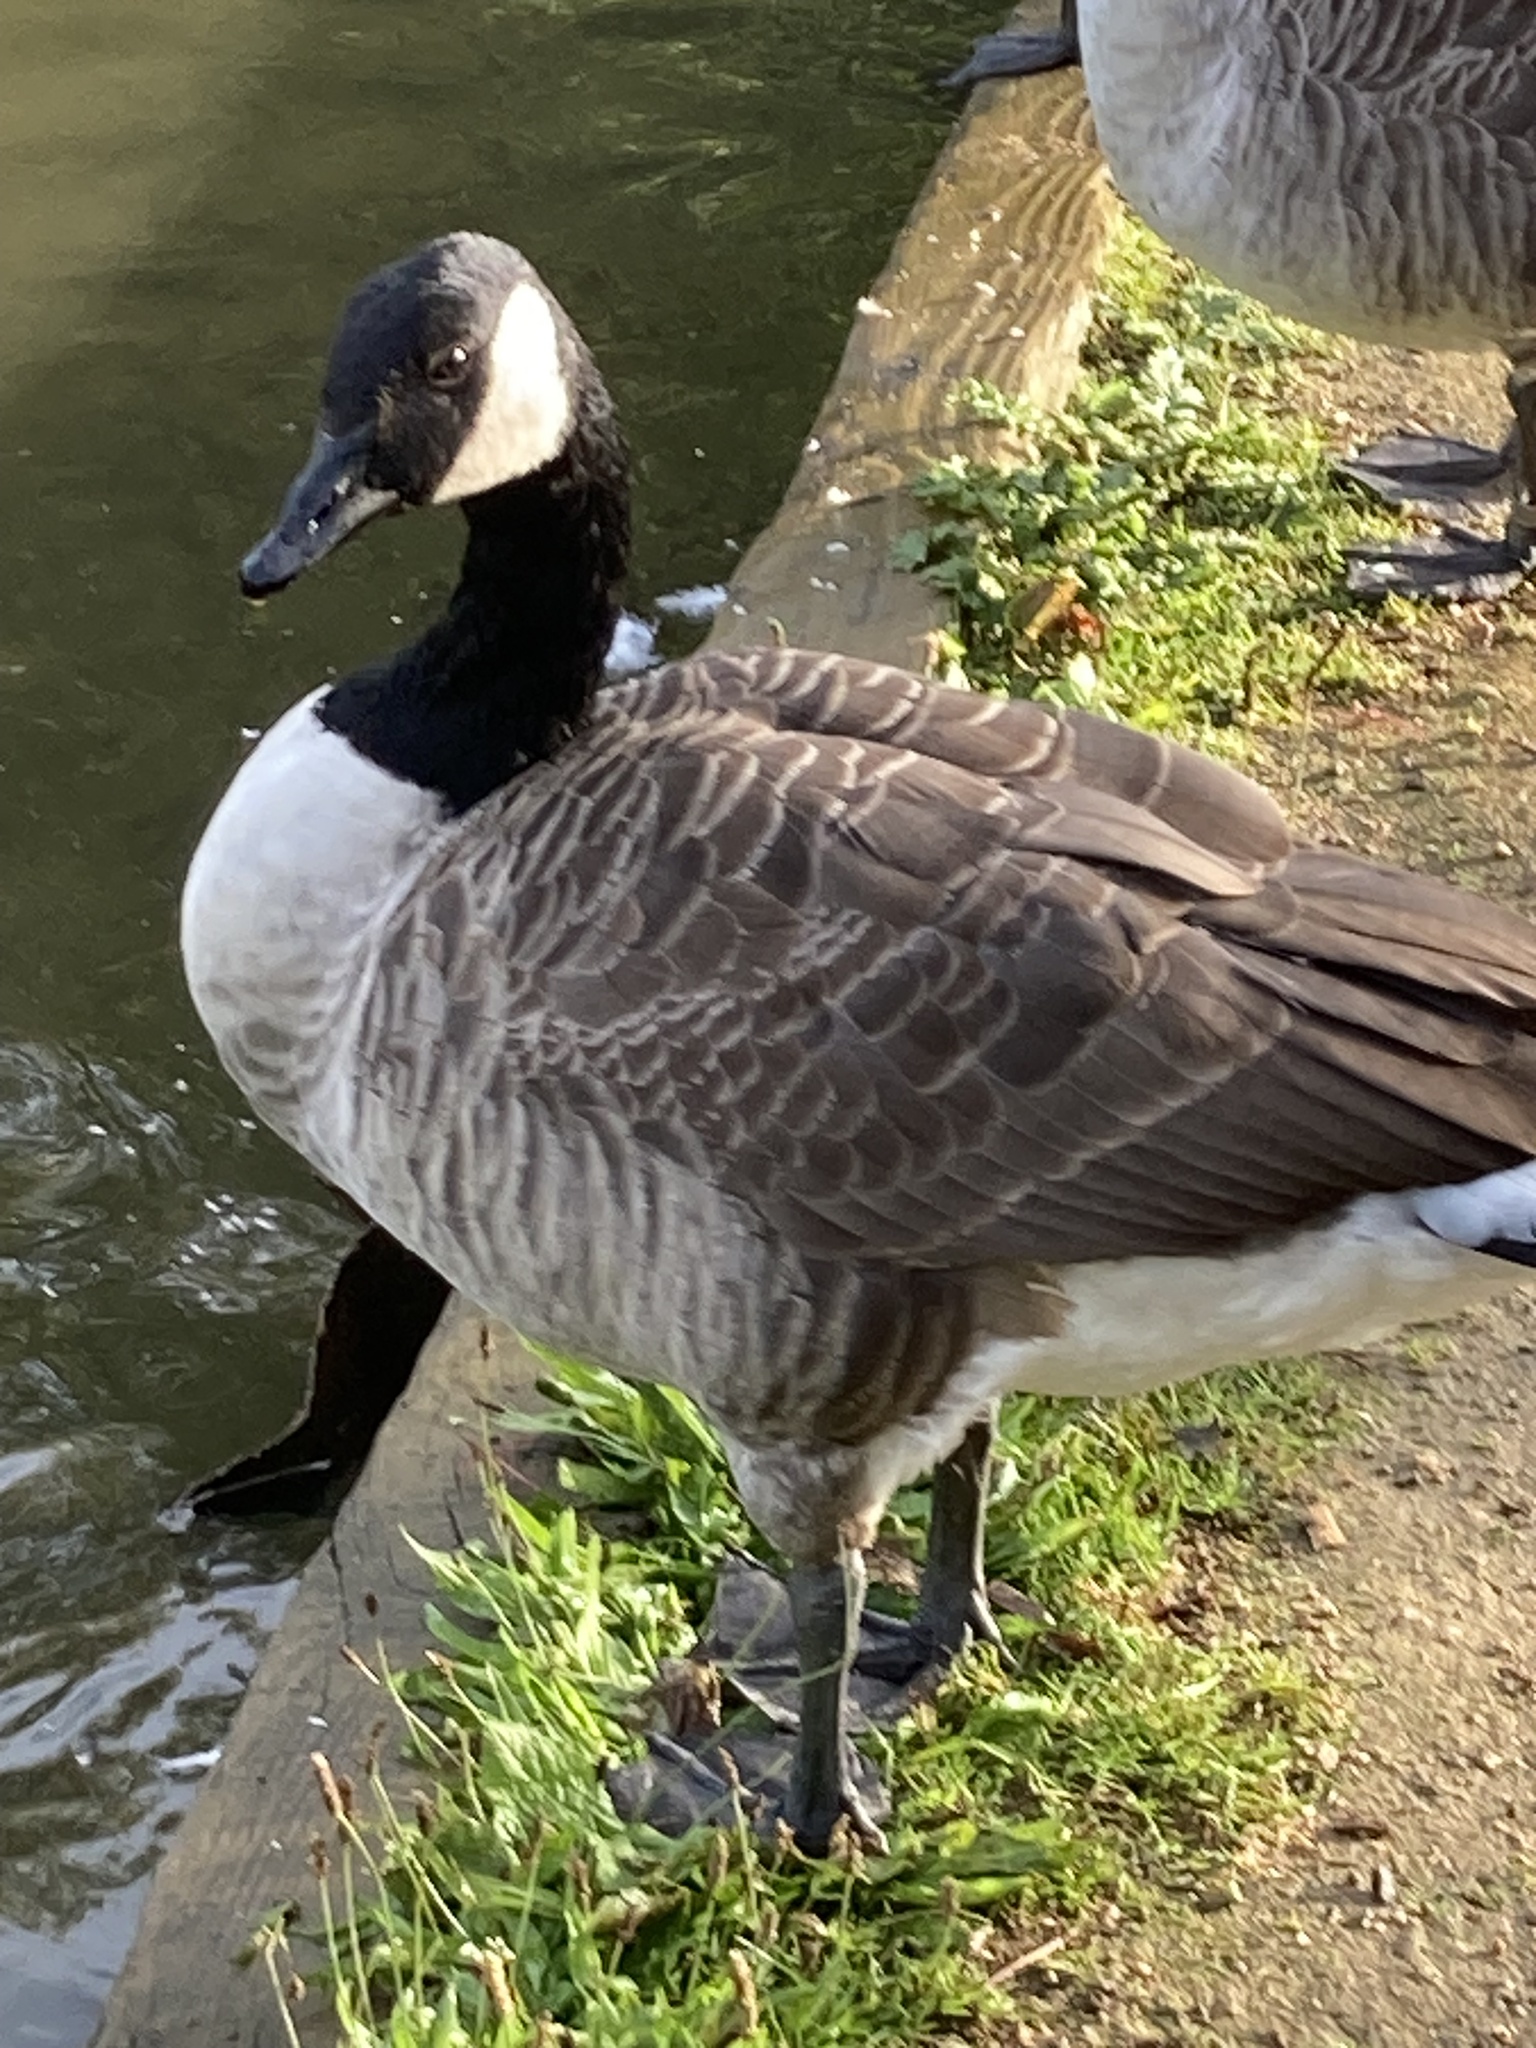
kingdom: Animalia
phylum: Chordata
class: Aves
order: Anseriformes
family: Anatidae
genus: Branta
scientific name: Branta canadensis
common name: Canada goose
